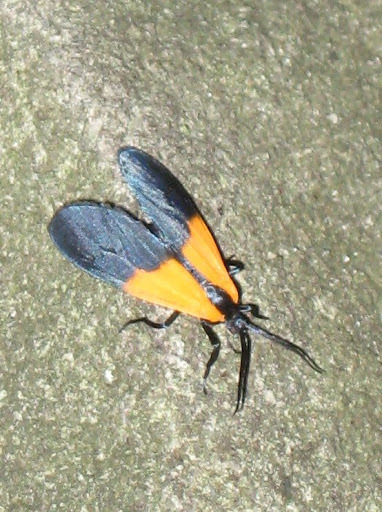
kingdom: Animalia
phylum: Arthropoda
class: Insecta
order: Lepidoptera
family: Erebidae
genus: Lycomorpha
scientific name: Lycomorpha pholus
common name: Black-and-yellow lichen moth
